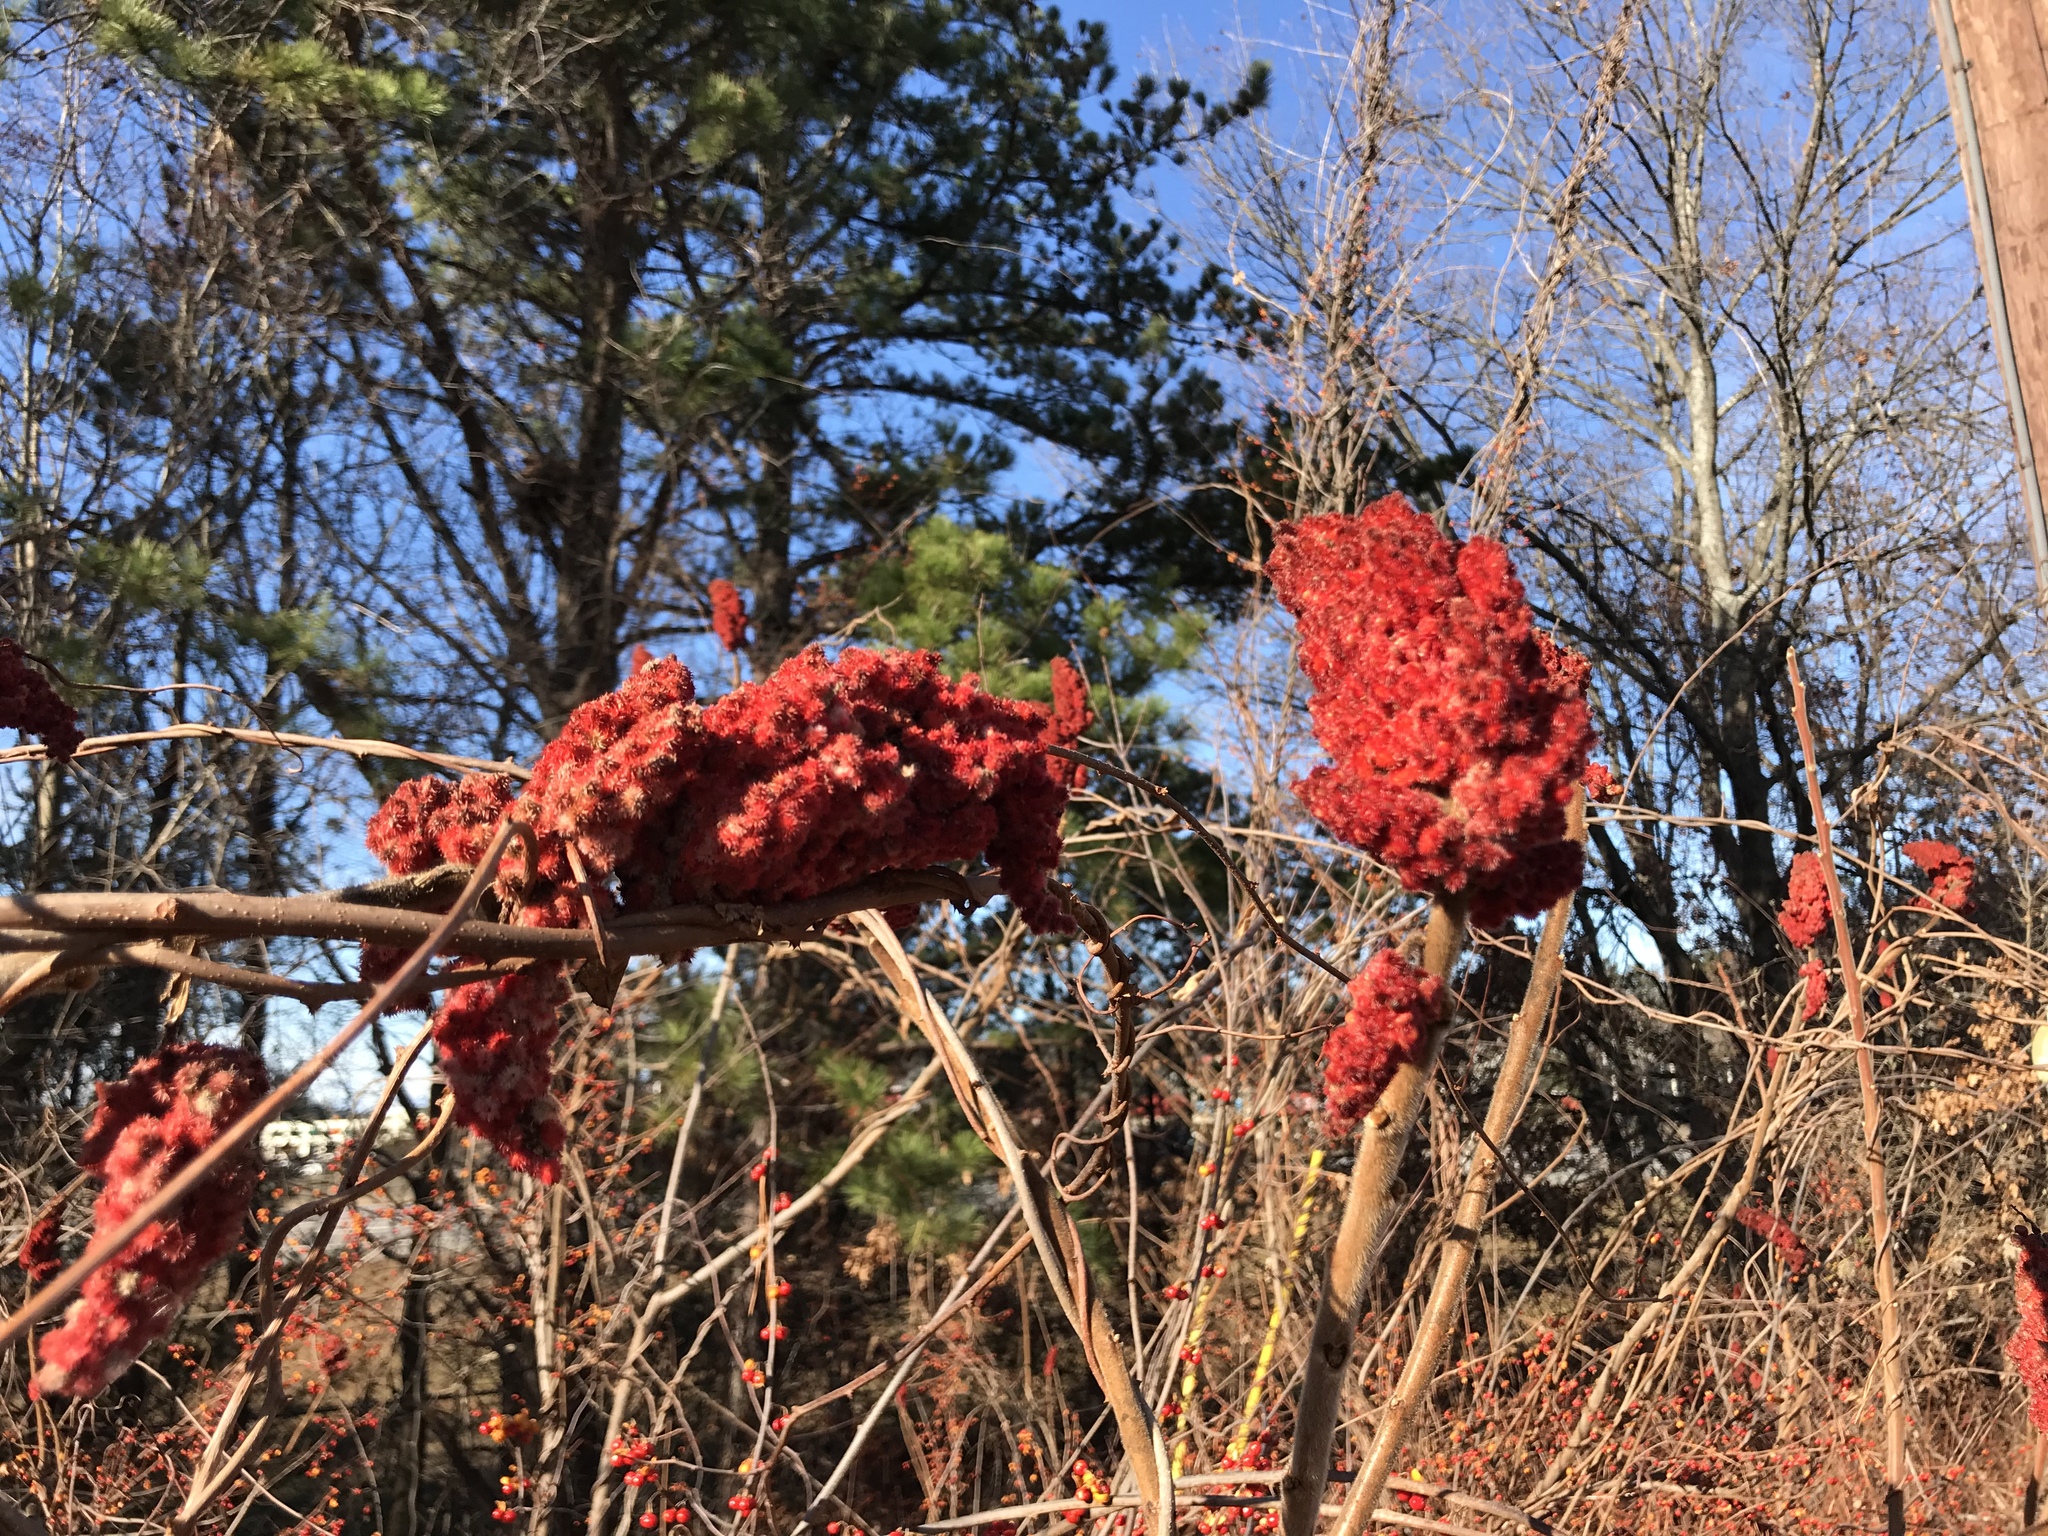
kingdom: Plantae
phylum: Tracheophyta
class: Magnoliopsida
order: Sapindales
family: Anacardiaceae
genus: Rhus
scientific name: Rhus typhina
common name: Staghorn sumac
